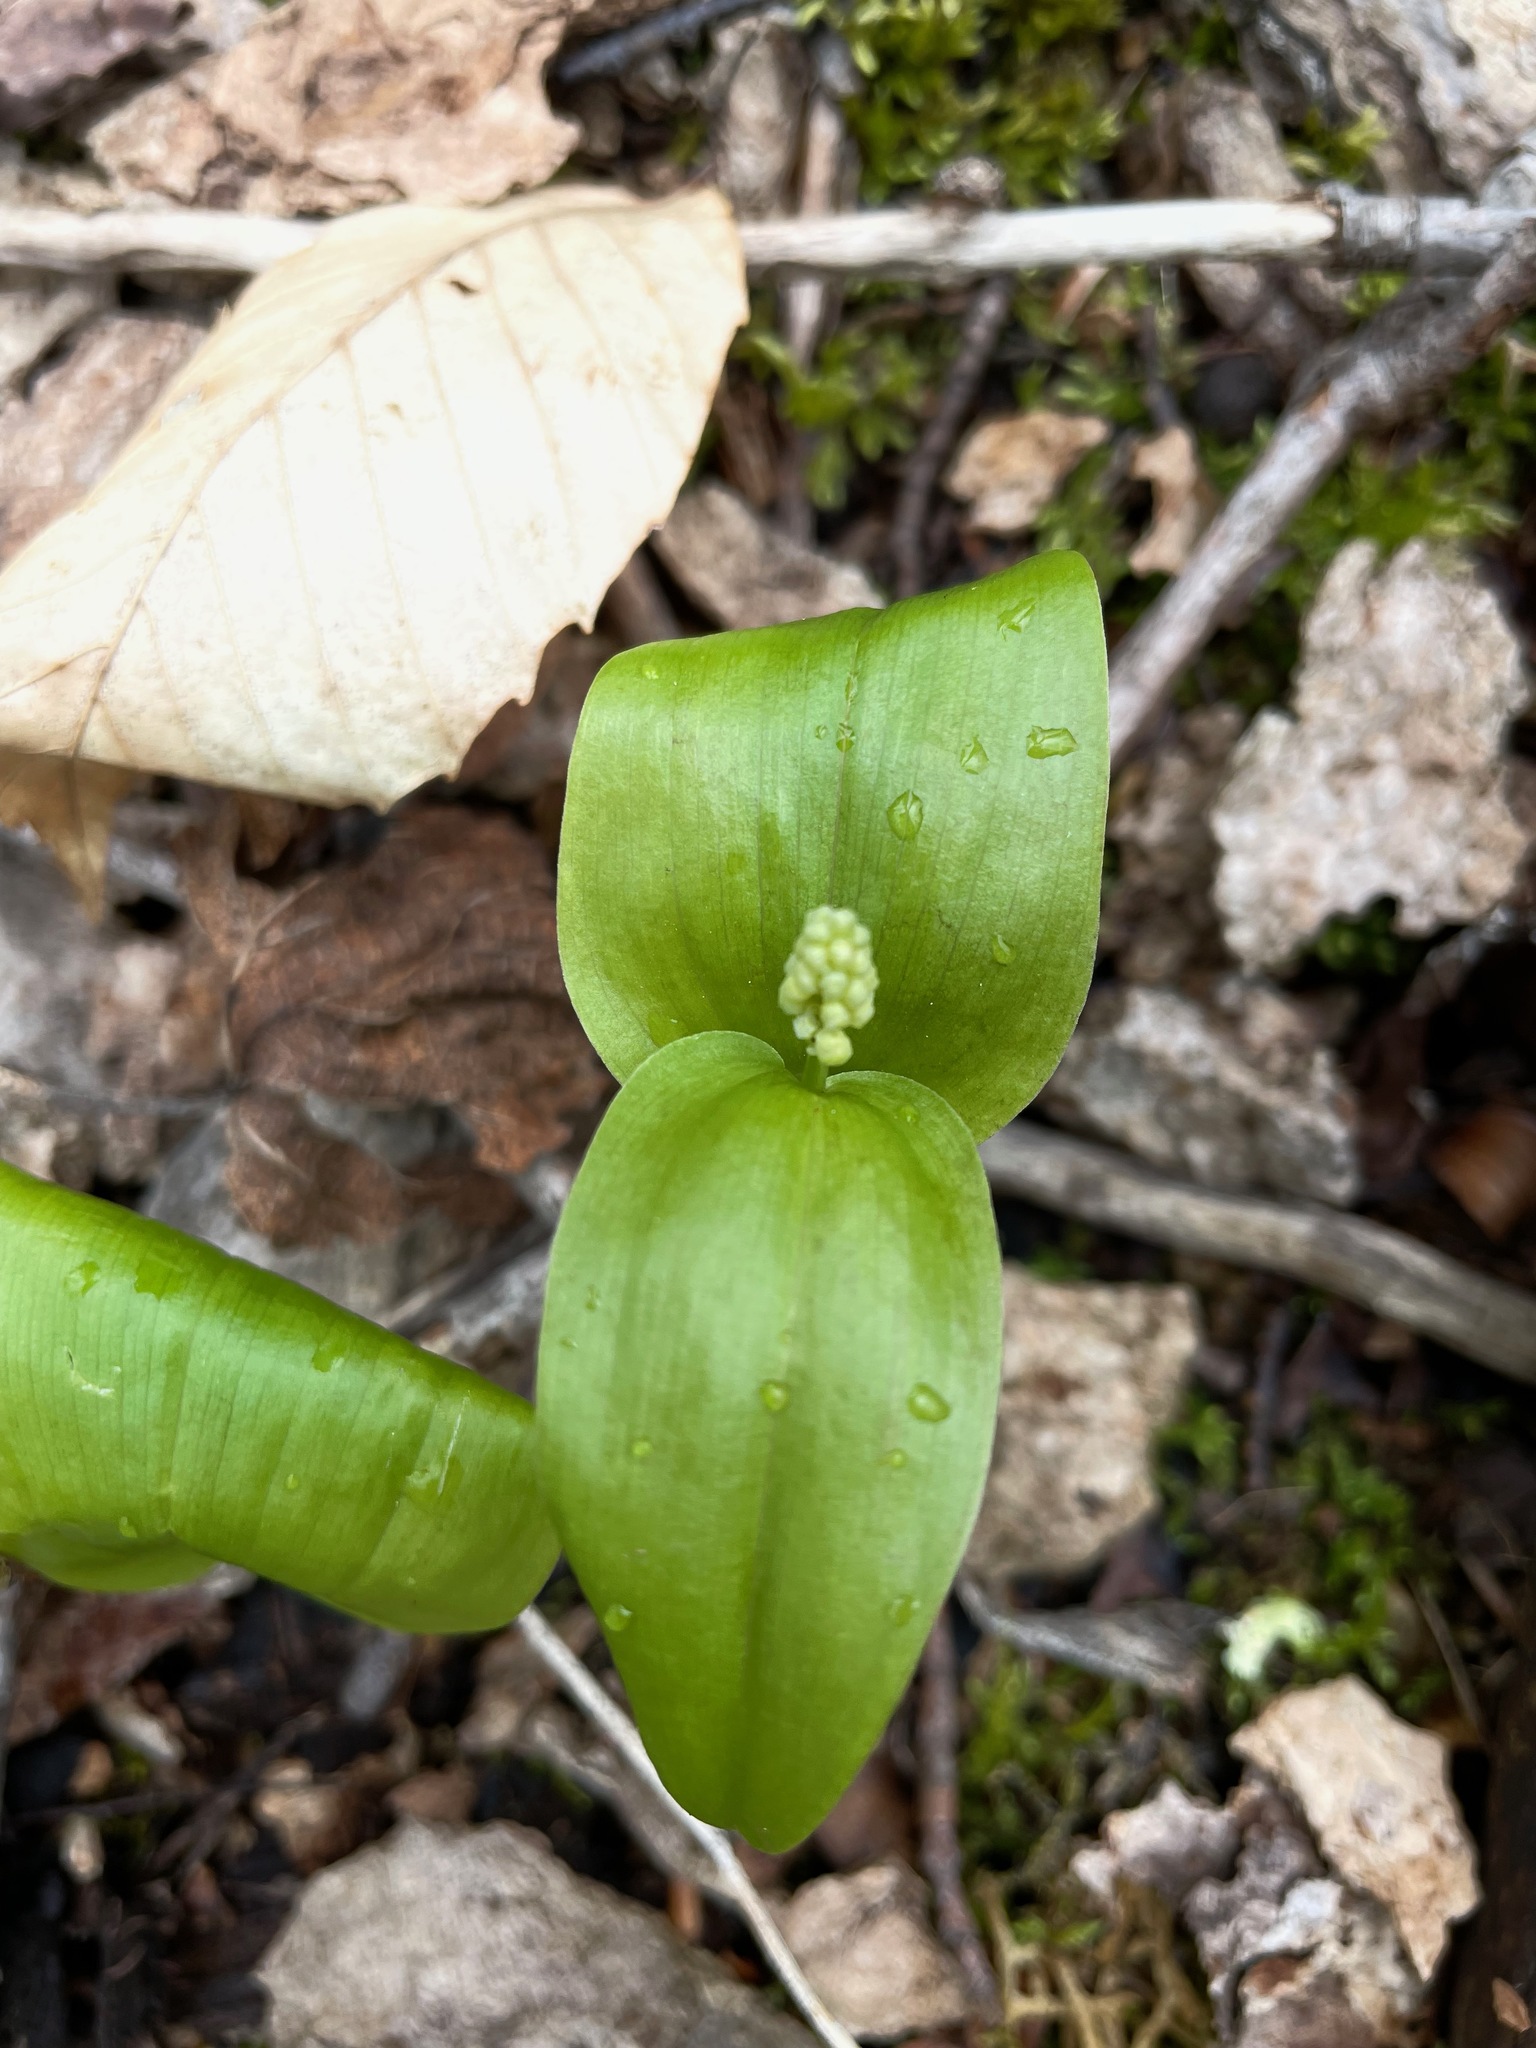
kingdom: Plantae
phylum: Tracheophyta
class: Liliopsida
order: Asparagales
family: Asparagaceae
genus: Maianthemum
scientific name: Maianthemum canadense
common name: False lily-of-the-valley
